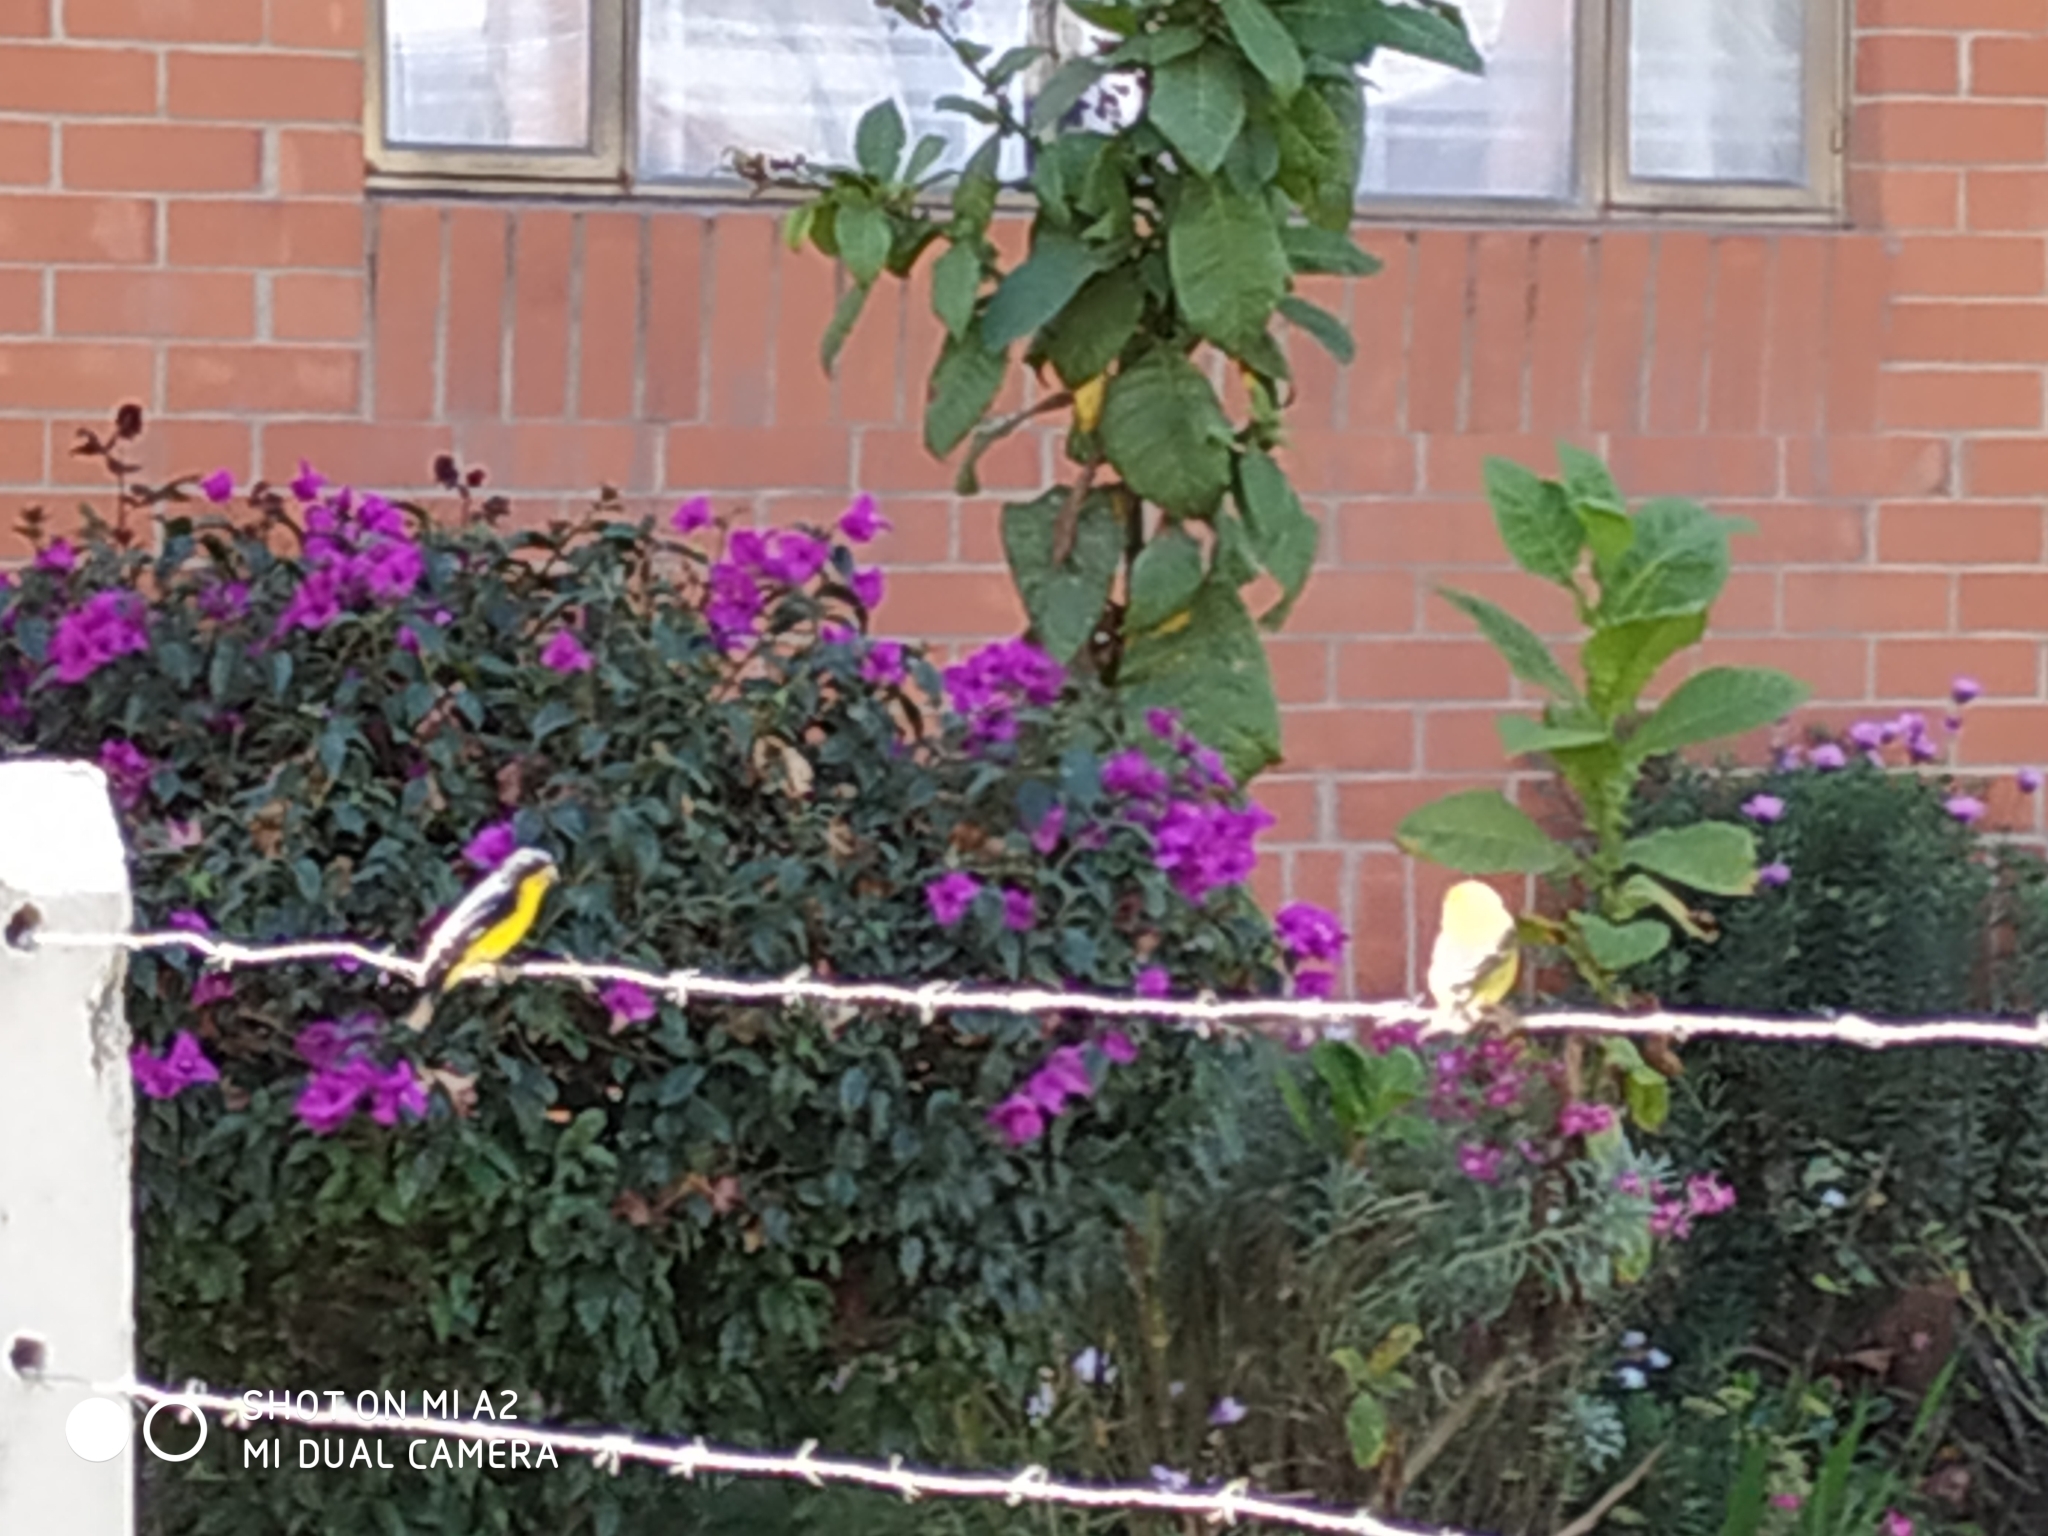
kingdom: Animalia
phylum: Chordata
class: Aves
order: Passeriformes
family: Fringillidae
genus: Spinus
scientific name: Spinus psaltria
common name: Lesser goldfinch
